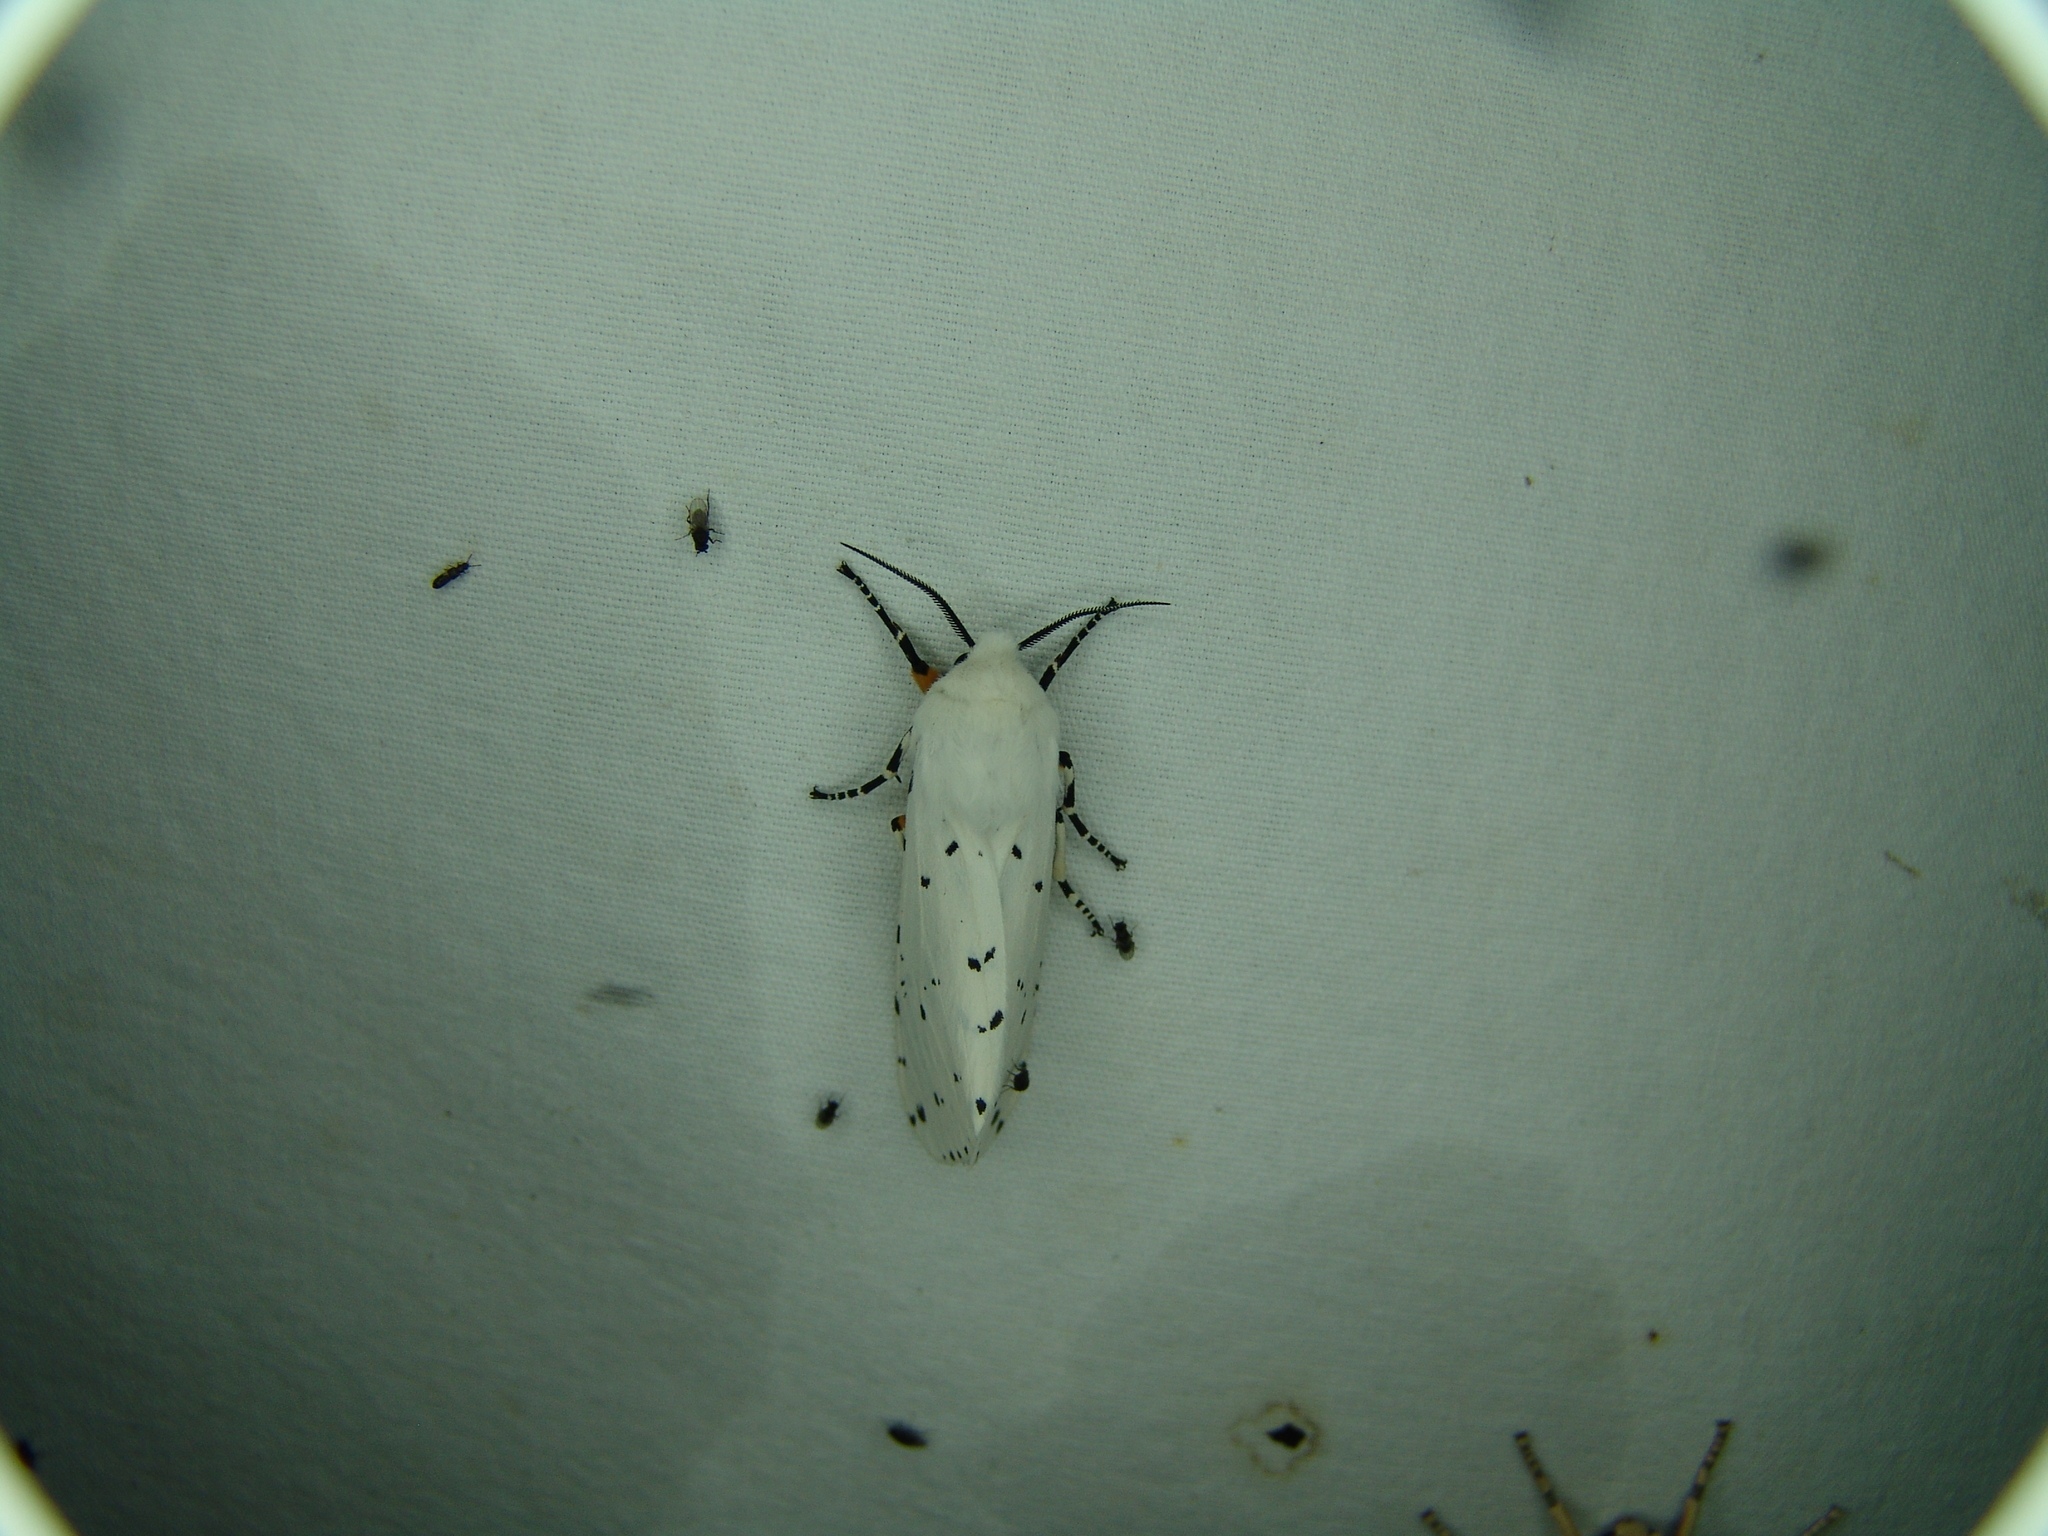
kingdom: Animalia
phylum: Arthropoda
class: Insecta
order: Lepidoptera
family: Erebidae
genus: Estigmene
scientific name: Estigmene
